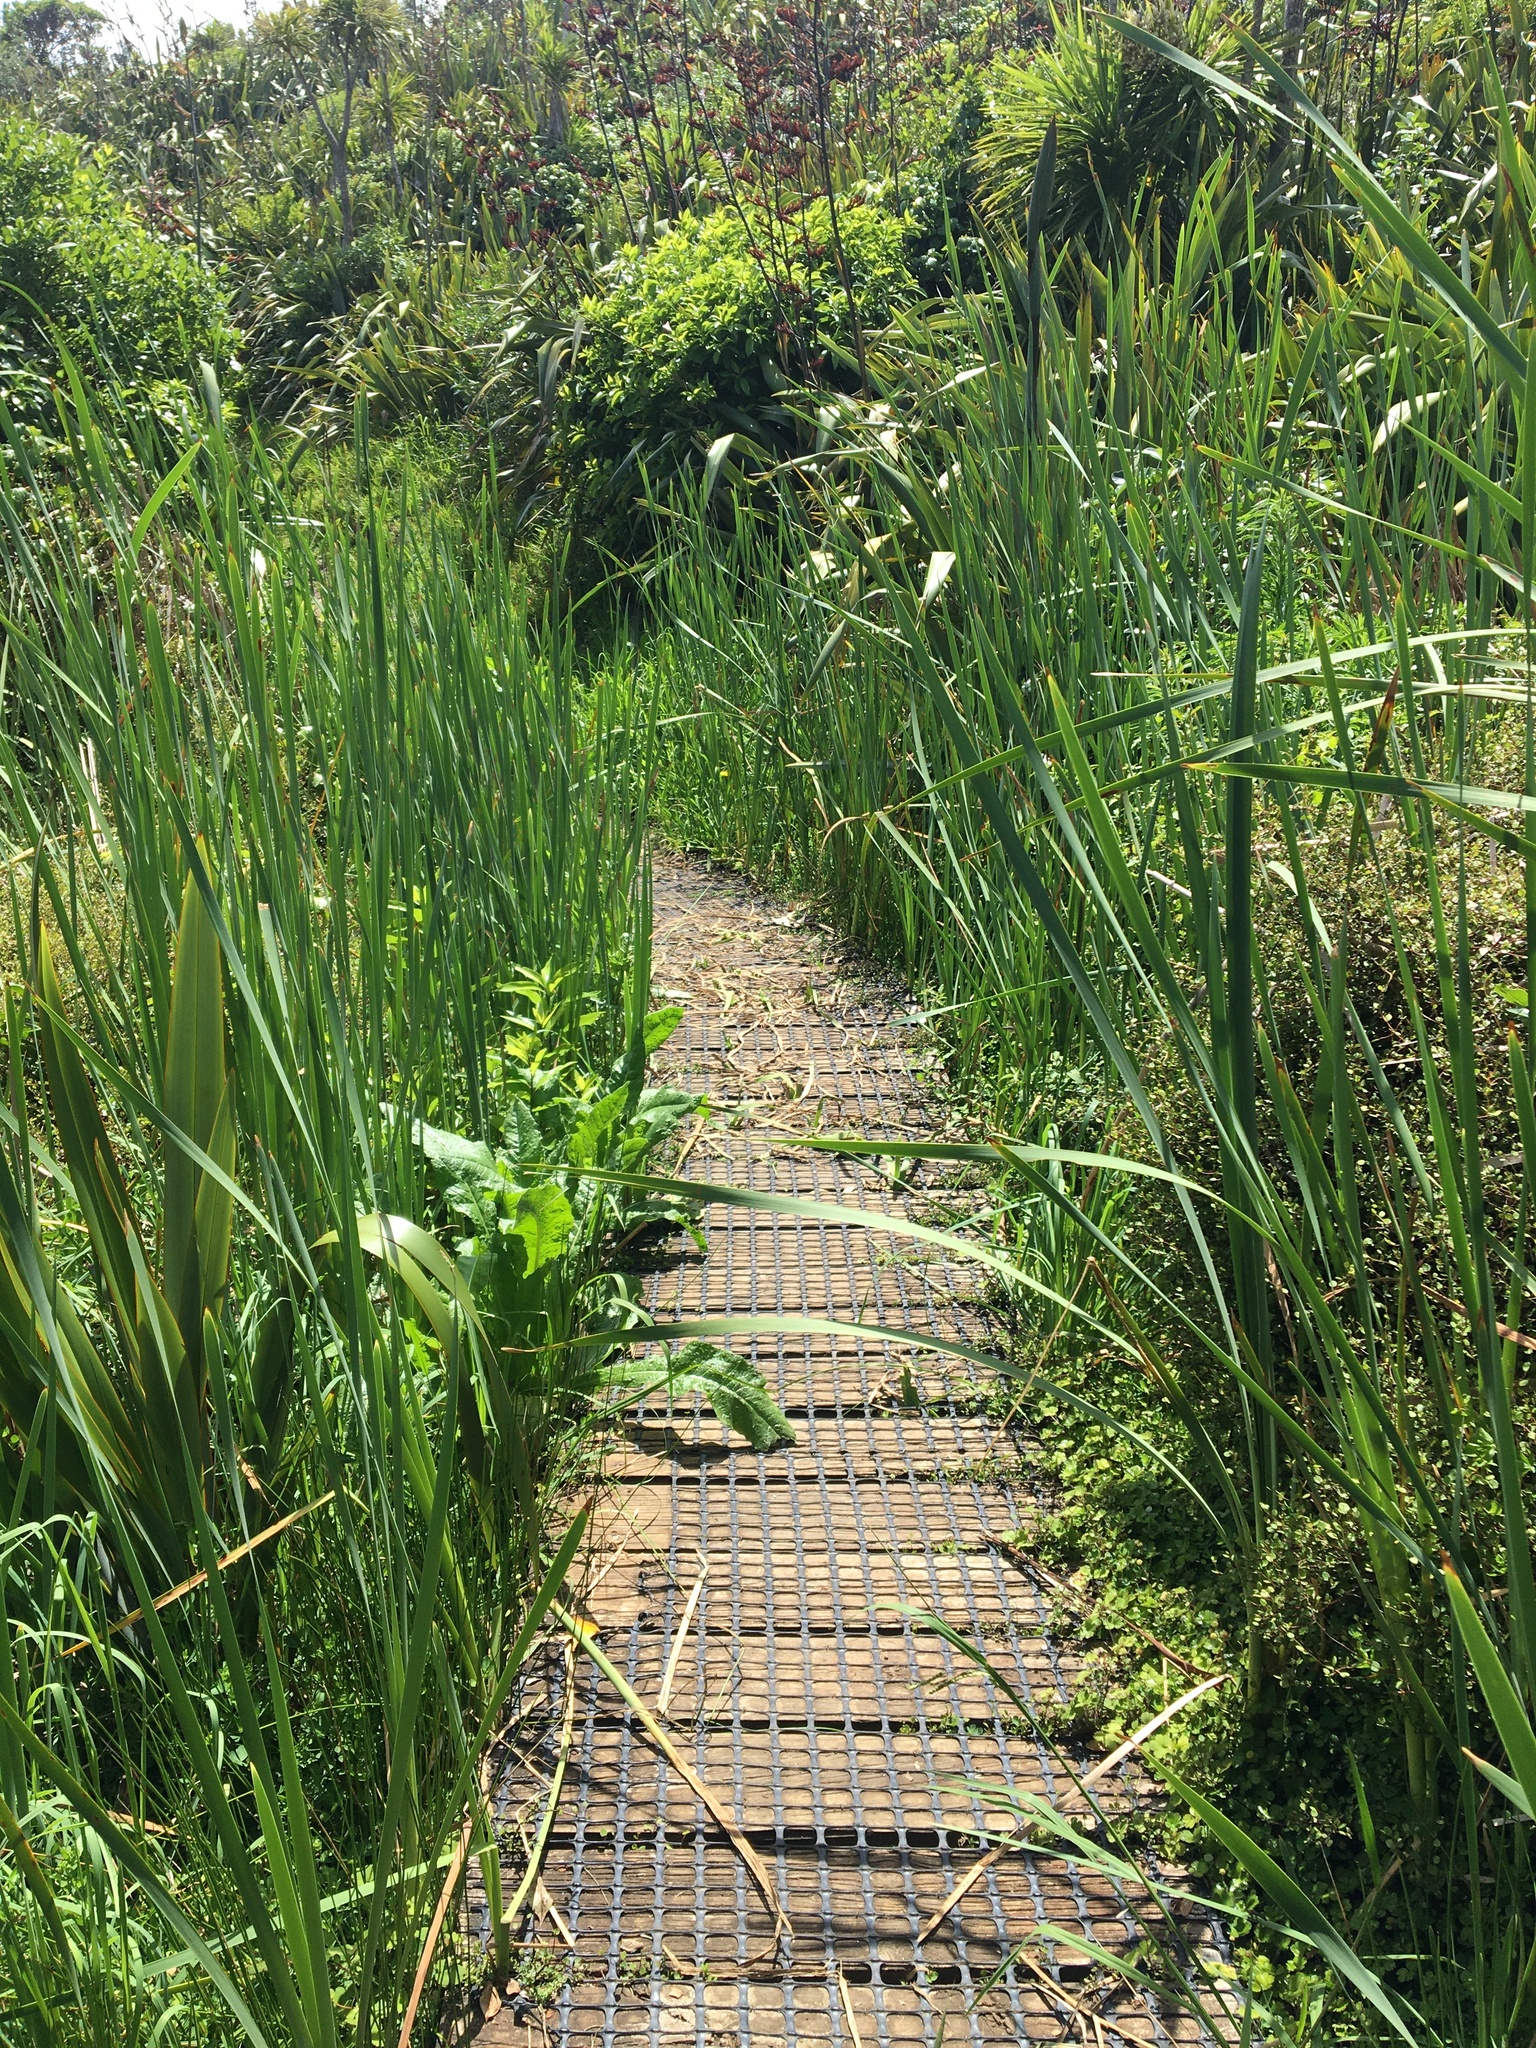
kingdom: Plantae
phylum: Tracheophyta
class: Liliopsida
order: Poales
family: Typhaceae
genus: Typha
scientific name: Typha orientalis
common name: Bullrush
